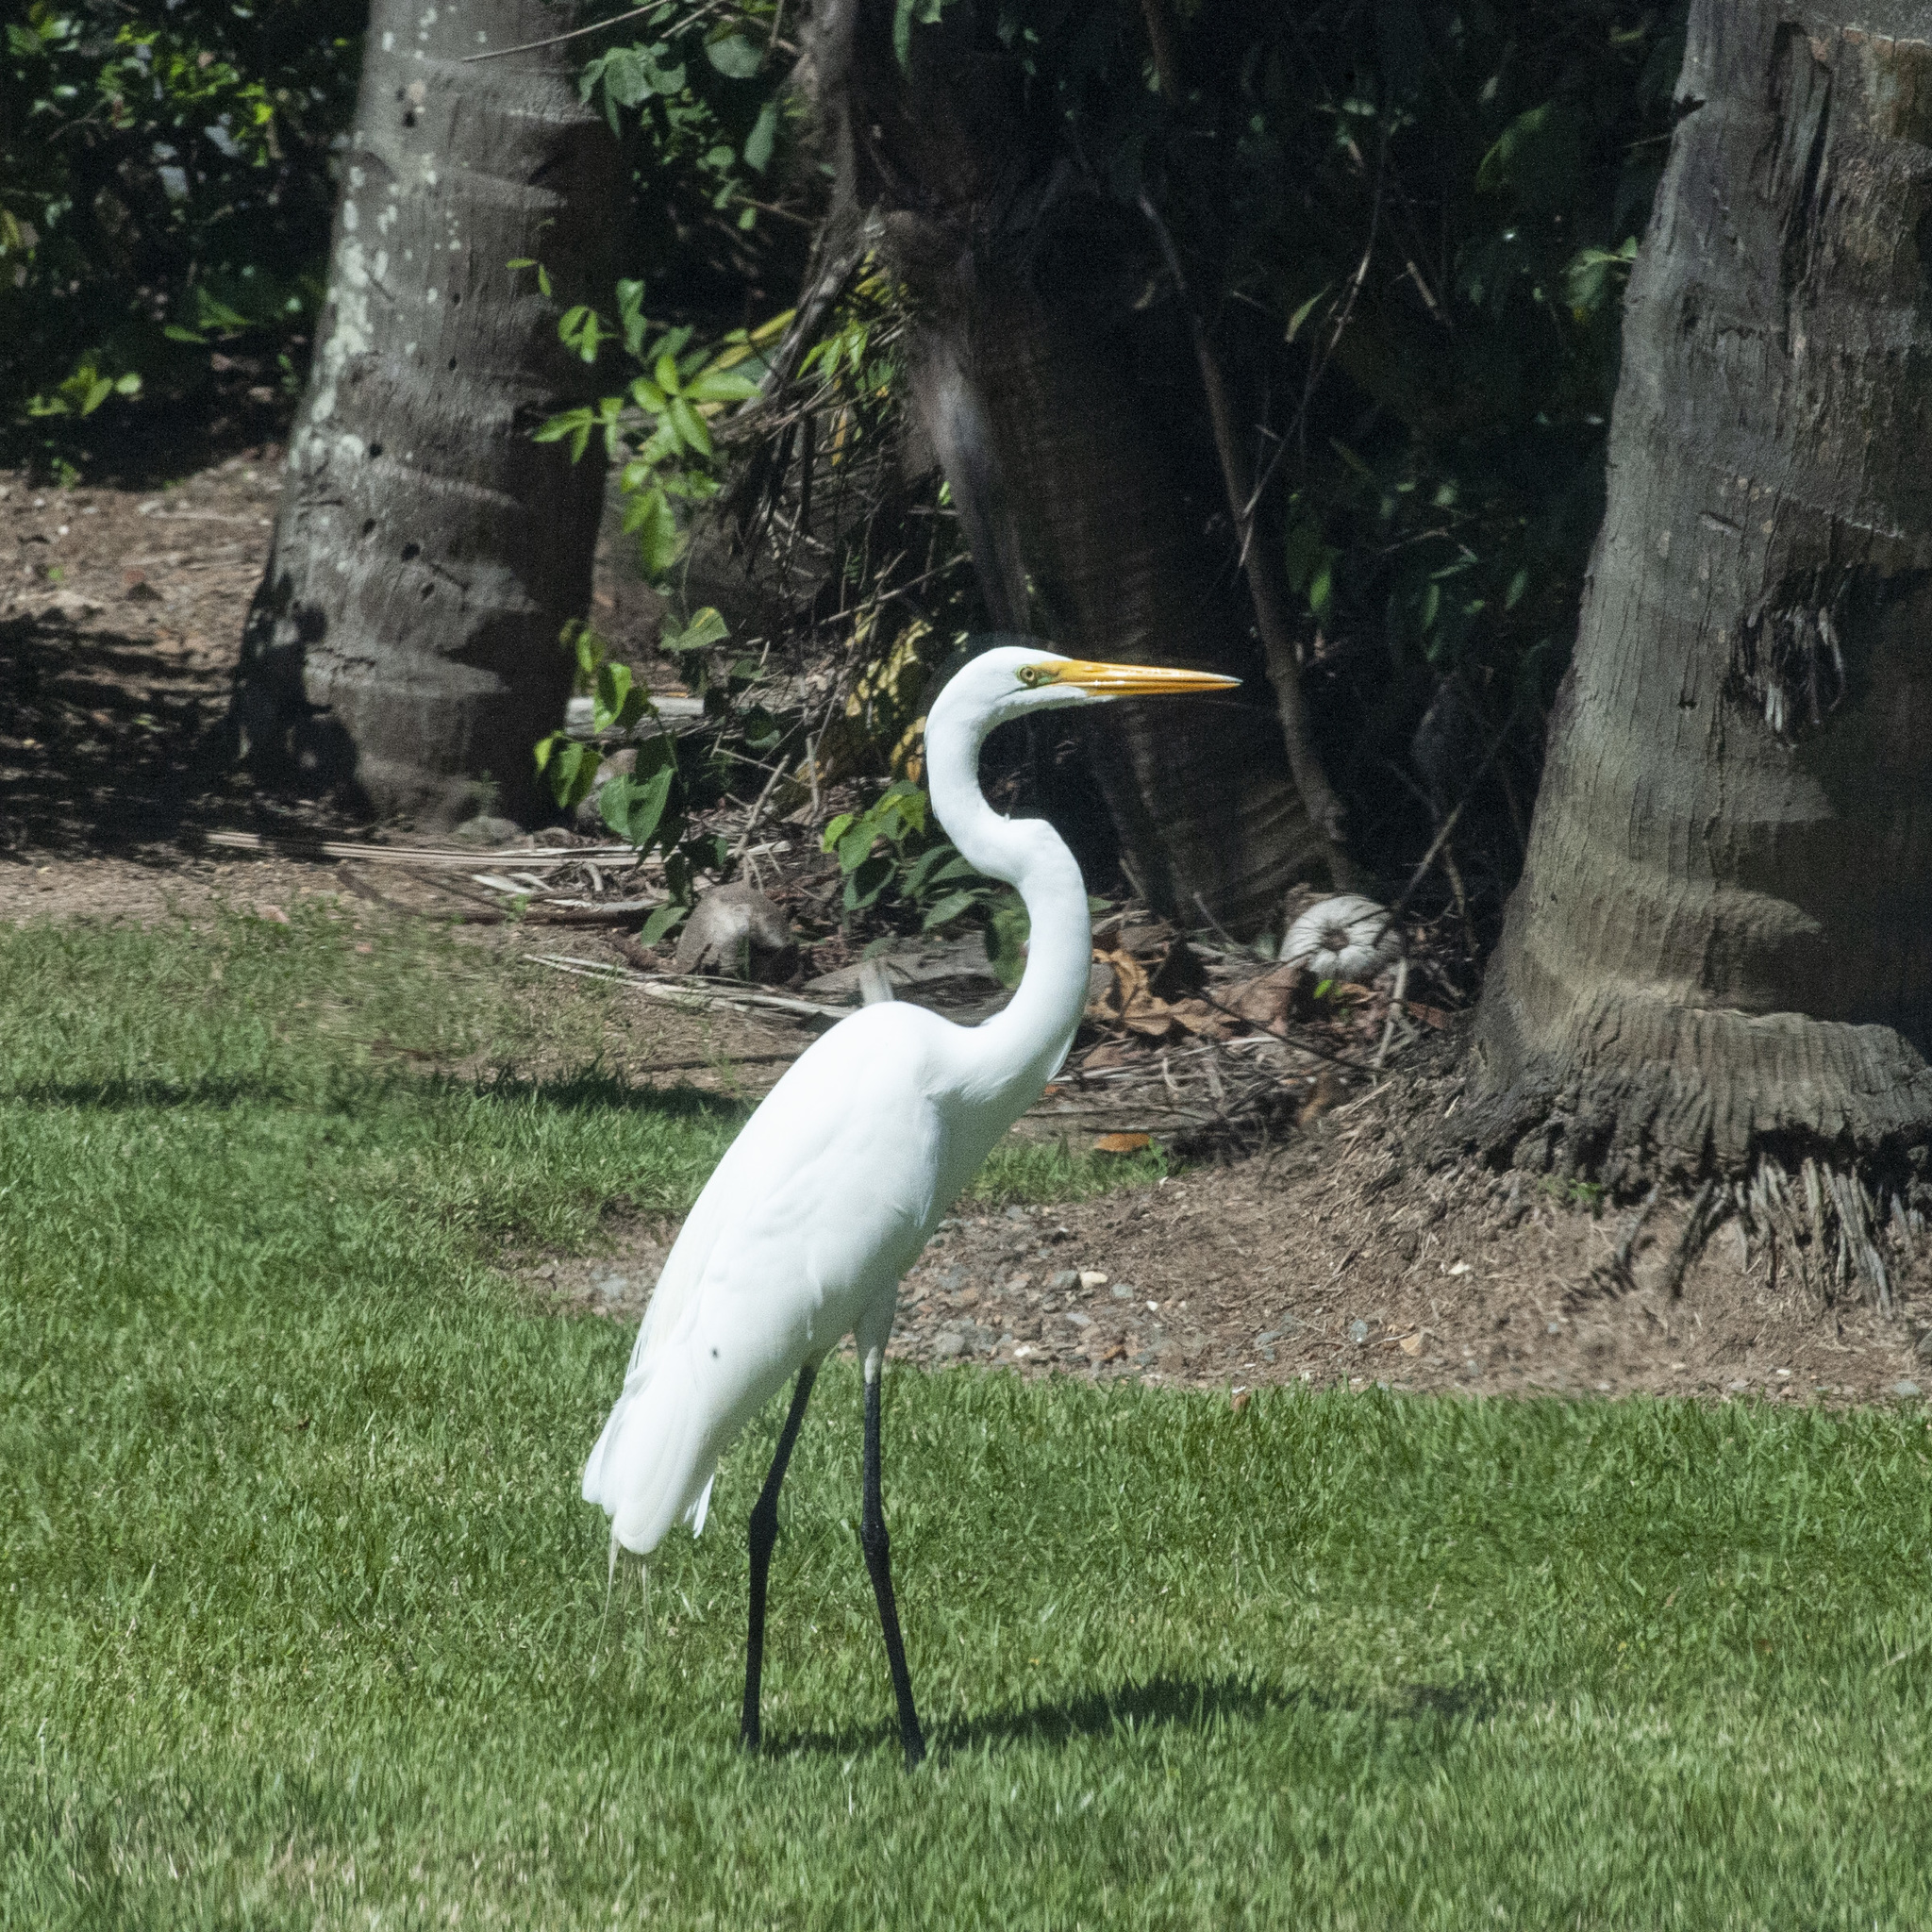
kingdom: Animalia
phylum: Chordata
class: Aves
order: Pelecaniformes
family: Ardeidae
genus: Ardea
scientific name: Ardea alba
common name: Great egret
